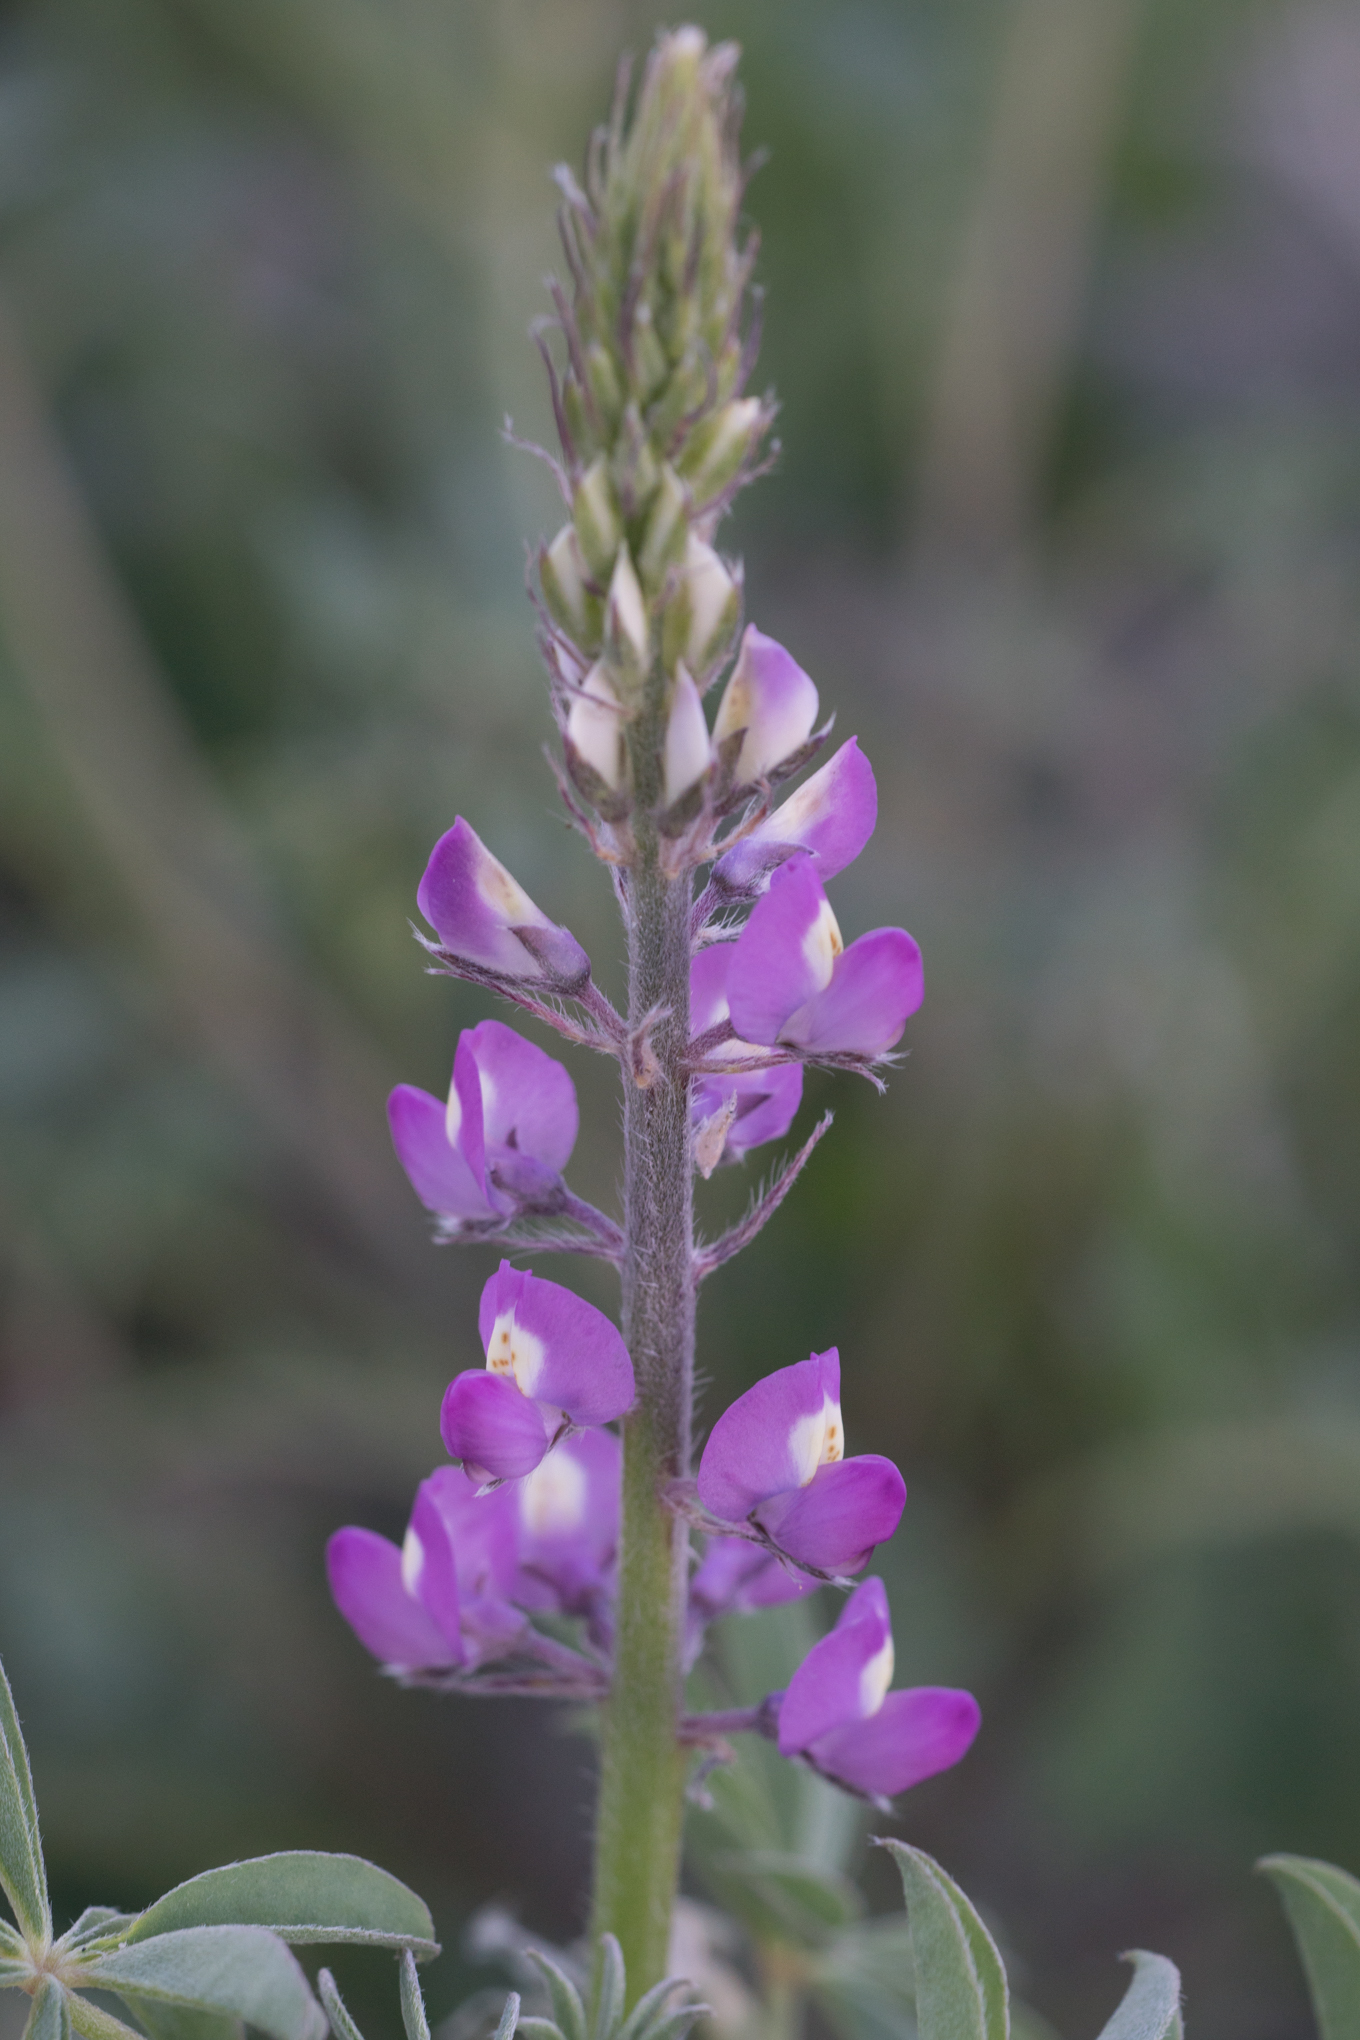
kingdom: Plantae
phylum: Tracheophyta
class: Magnoliopsida
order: Fabales
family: Fabaceae
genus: Lupinus
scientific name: Lupinus arizonicus
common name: Arizona lupine
